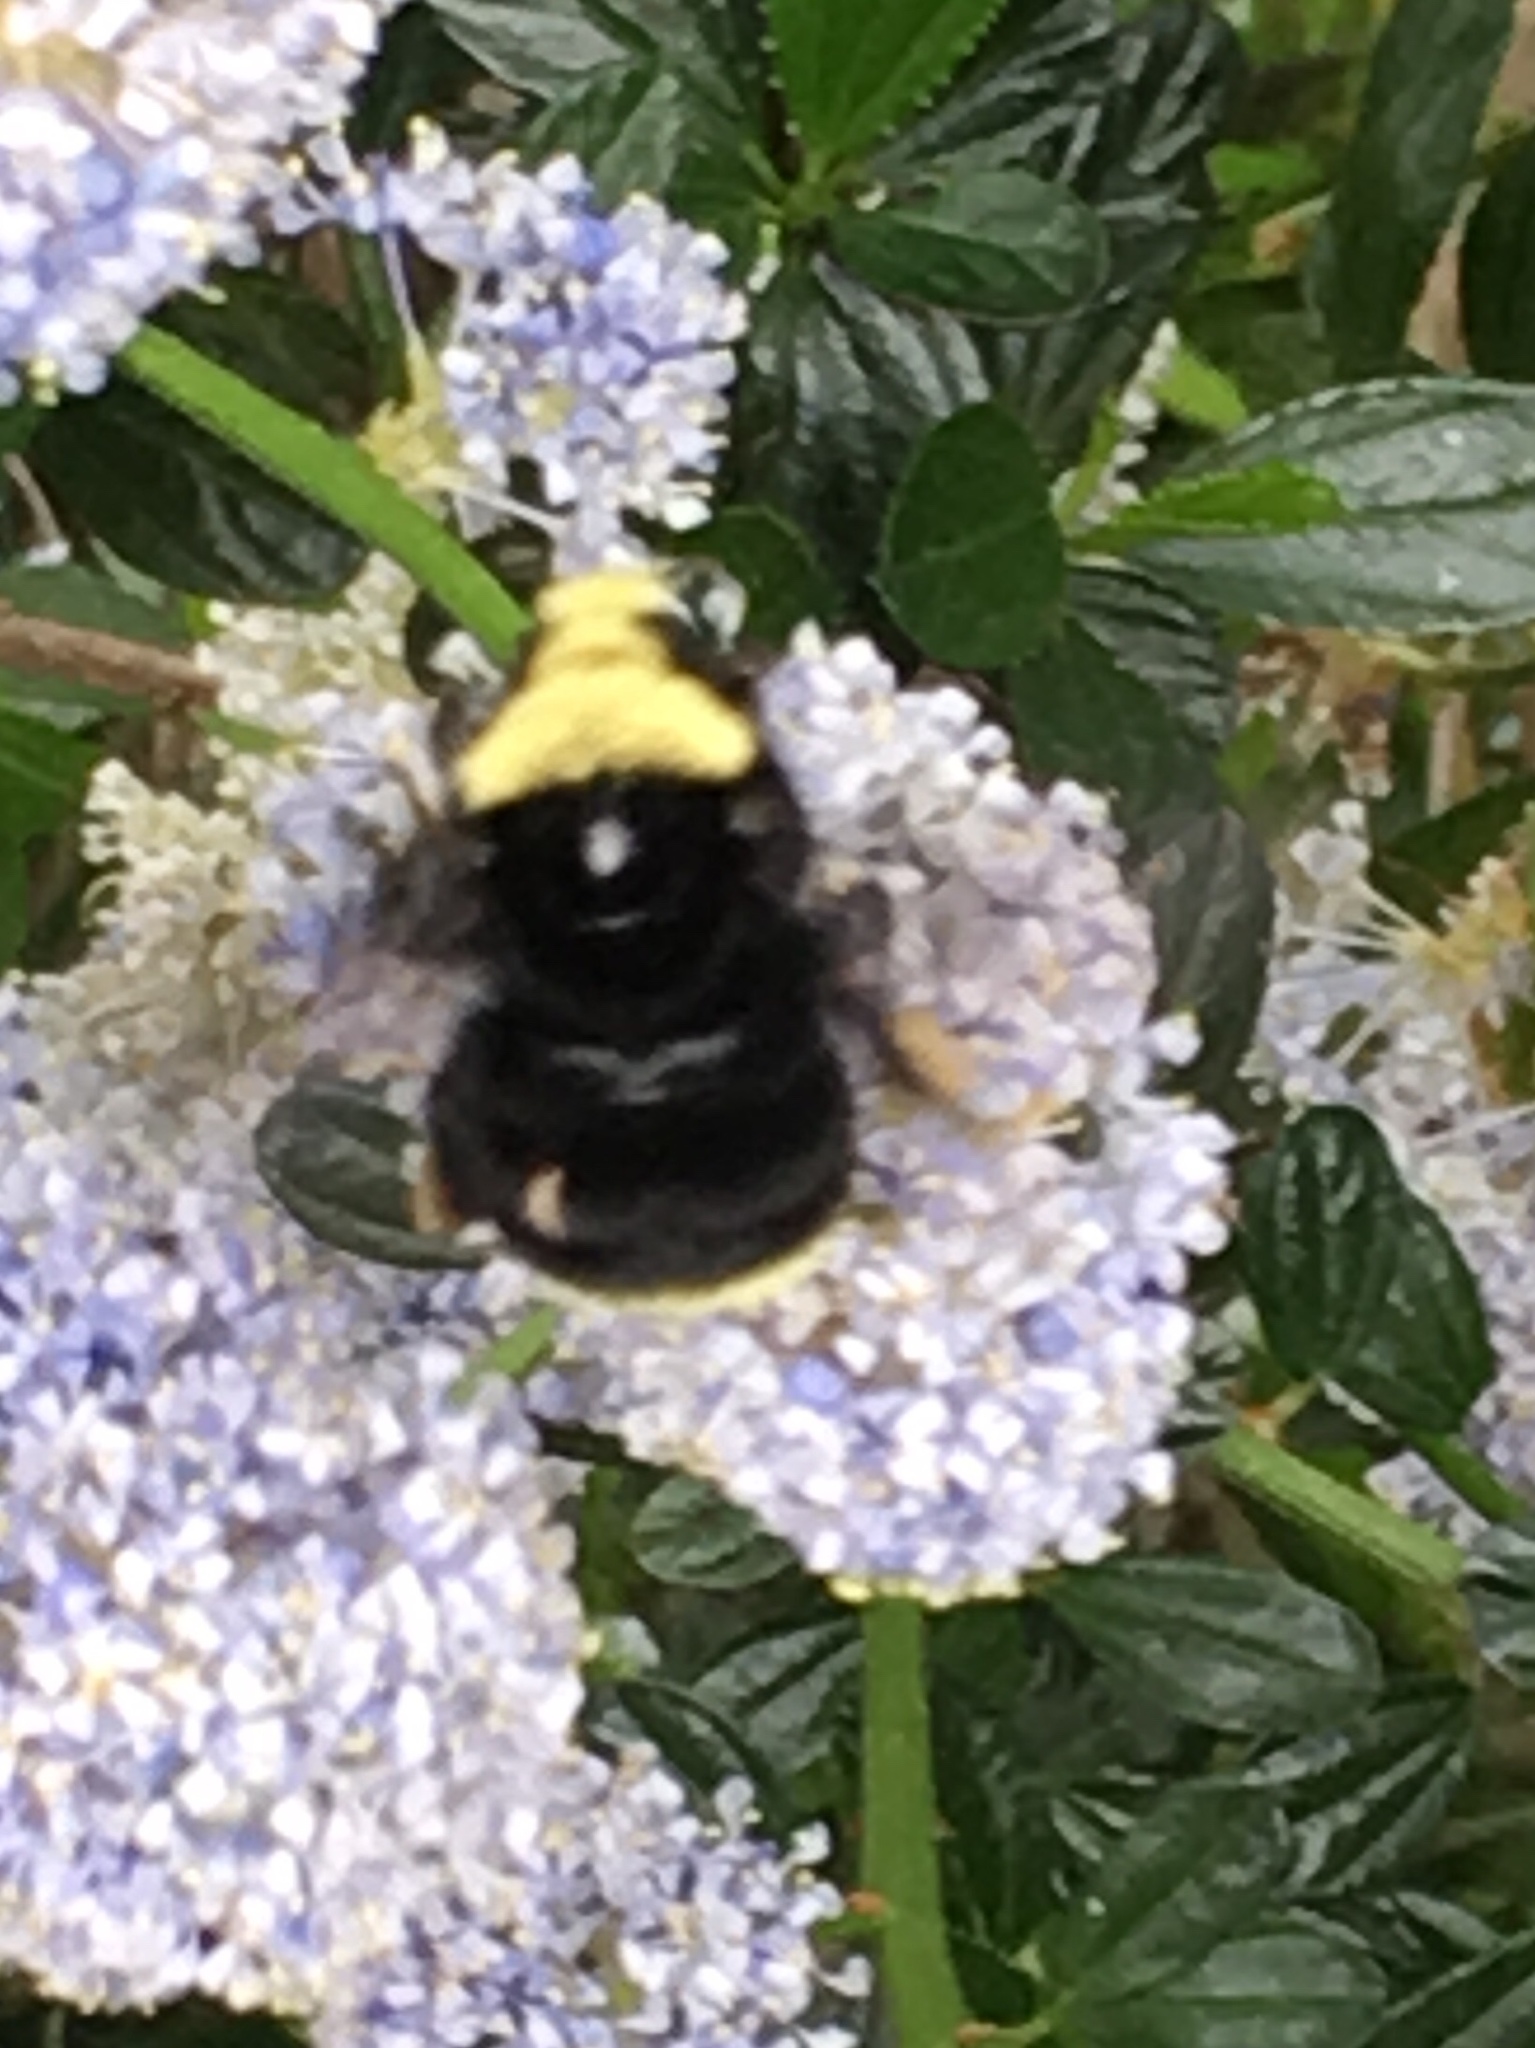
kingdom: Animalia
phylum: Arthropoda
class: Insecta
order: Hymenoptera
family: Apidae
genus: Bombus
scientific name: Bombus vosnesenskii
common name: Vosnesensky bumble bee
